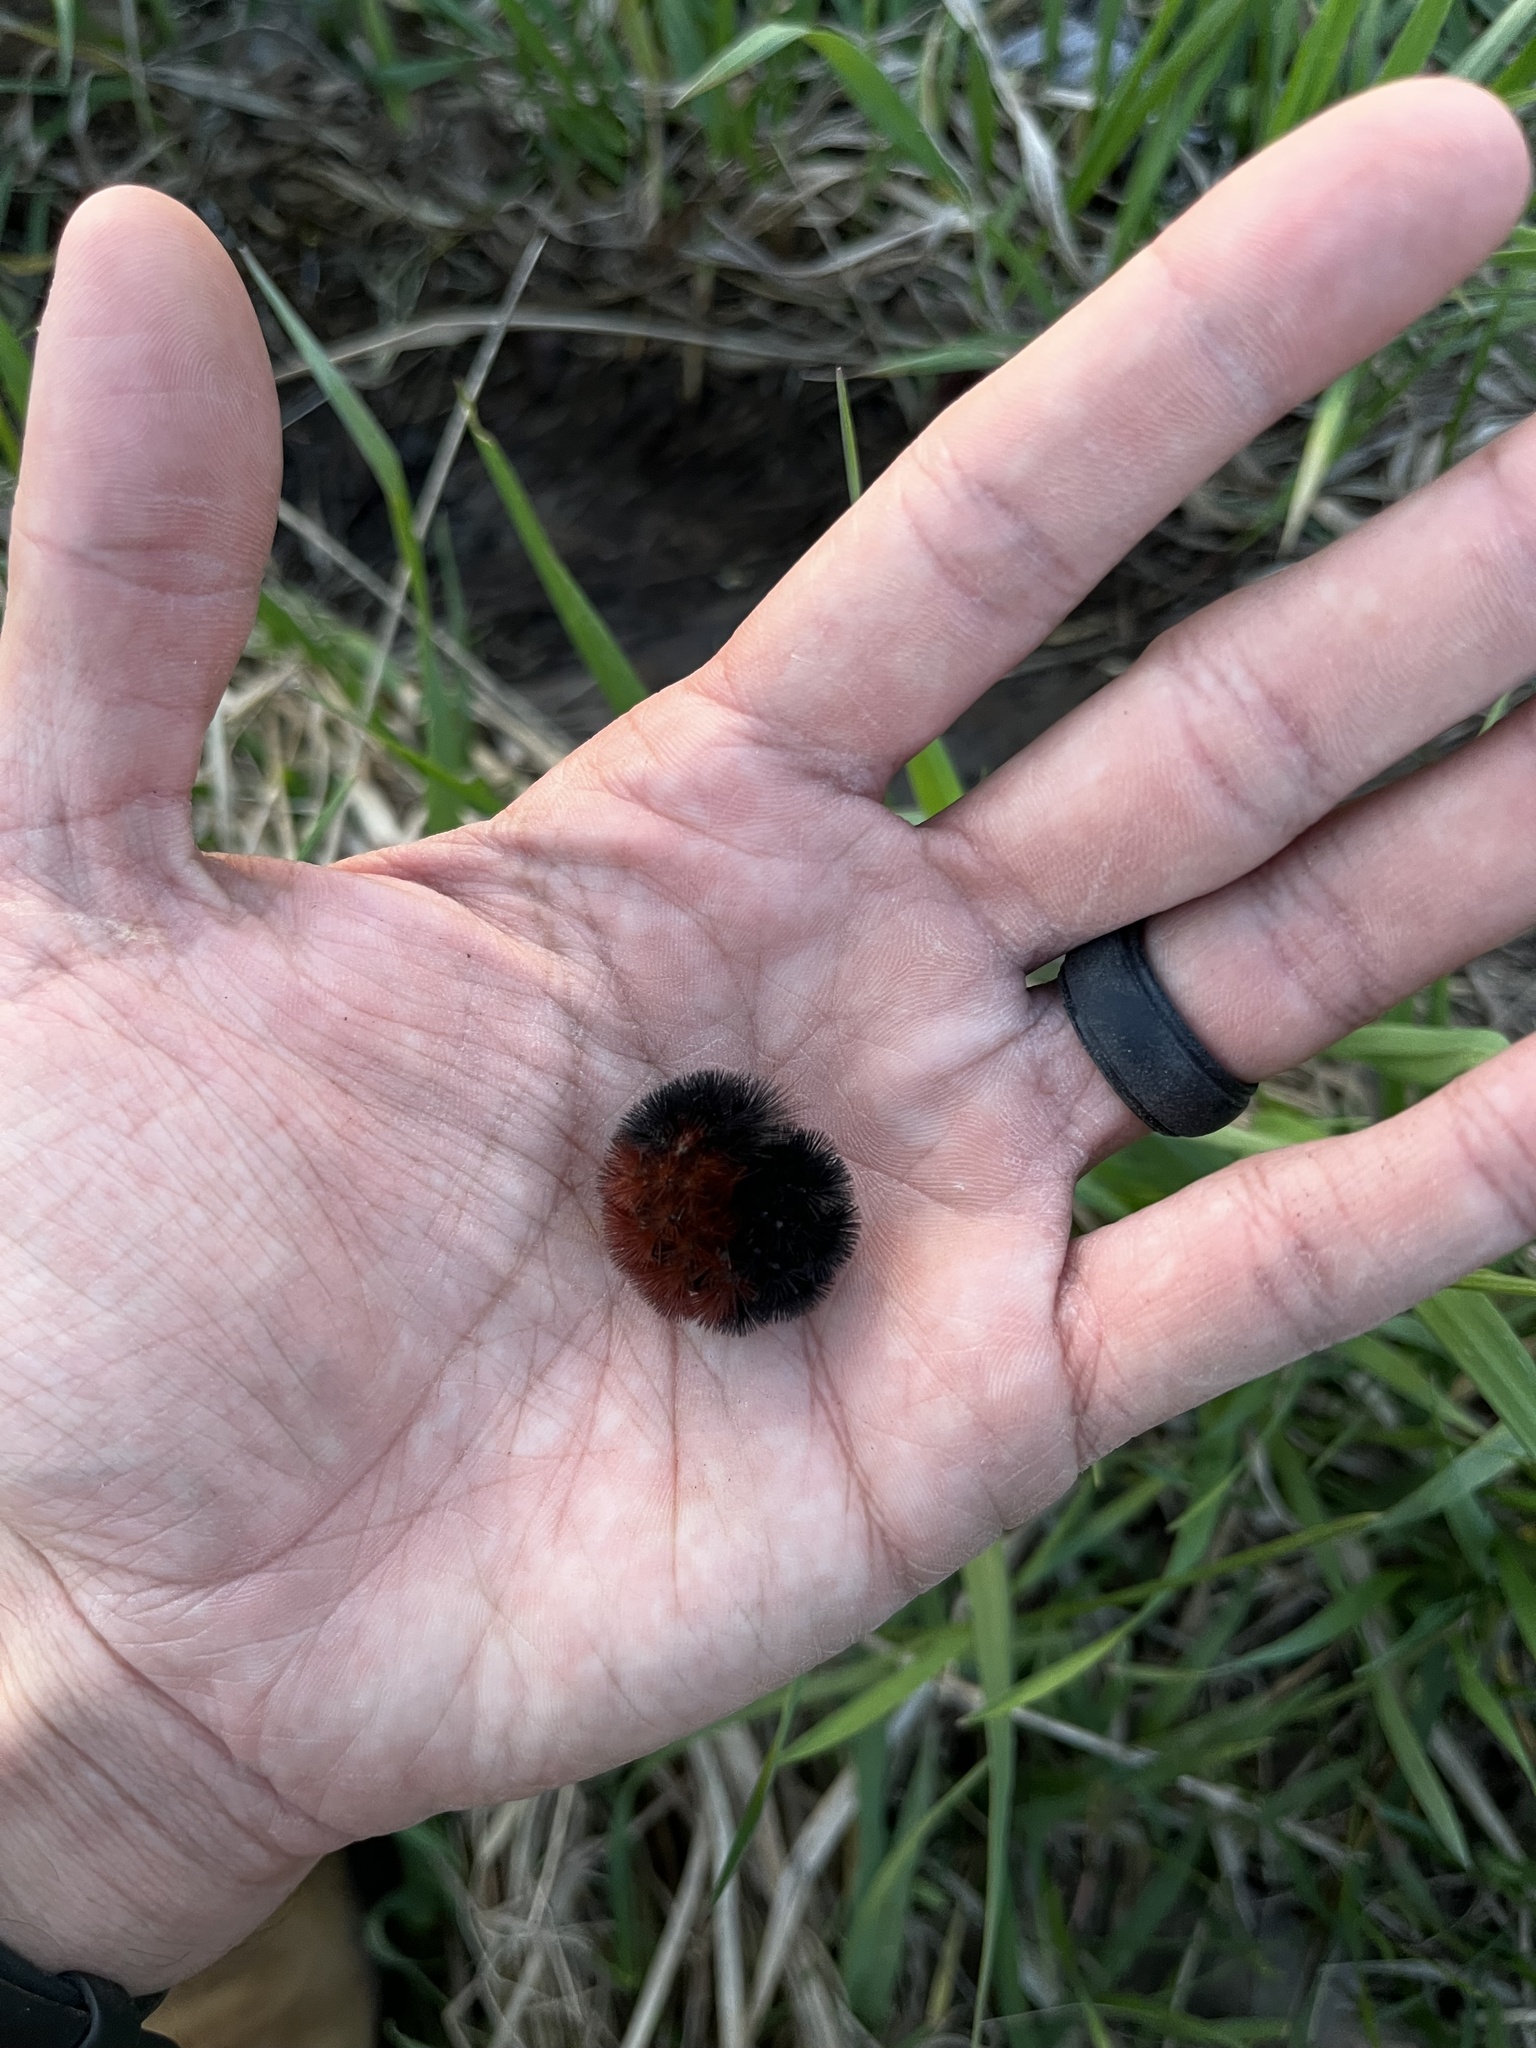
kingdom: Animalia
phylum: Arthropoda
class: Insecta
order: Lepidoptera
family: Erebidae
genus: Pyrrharctia
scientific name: Pyrrharctia isabella
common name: Isabella tiger moth
